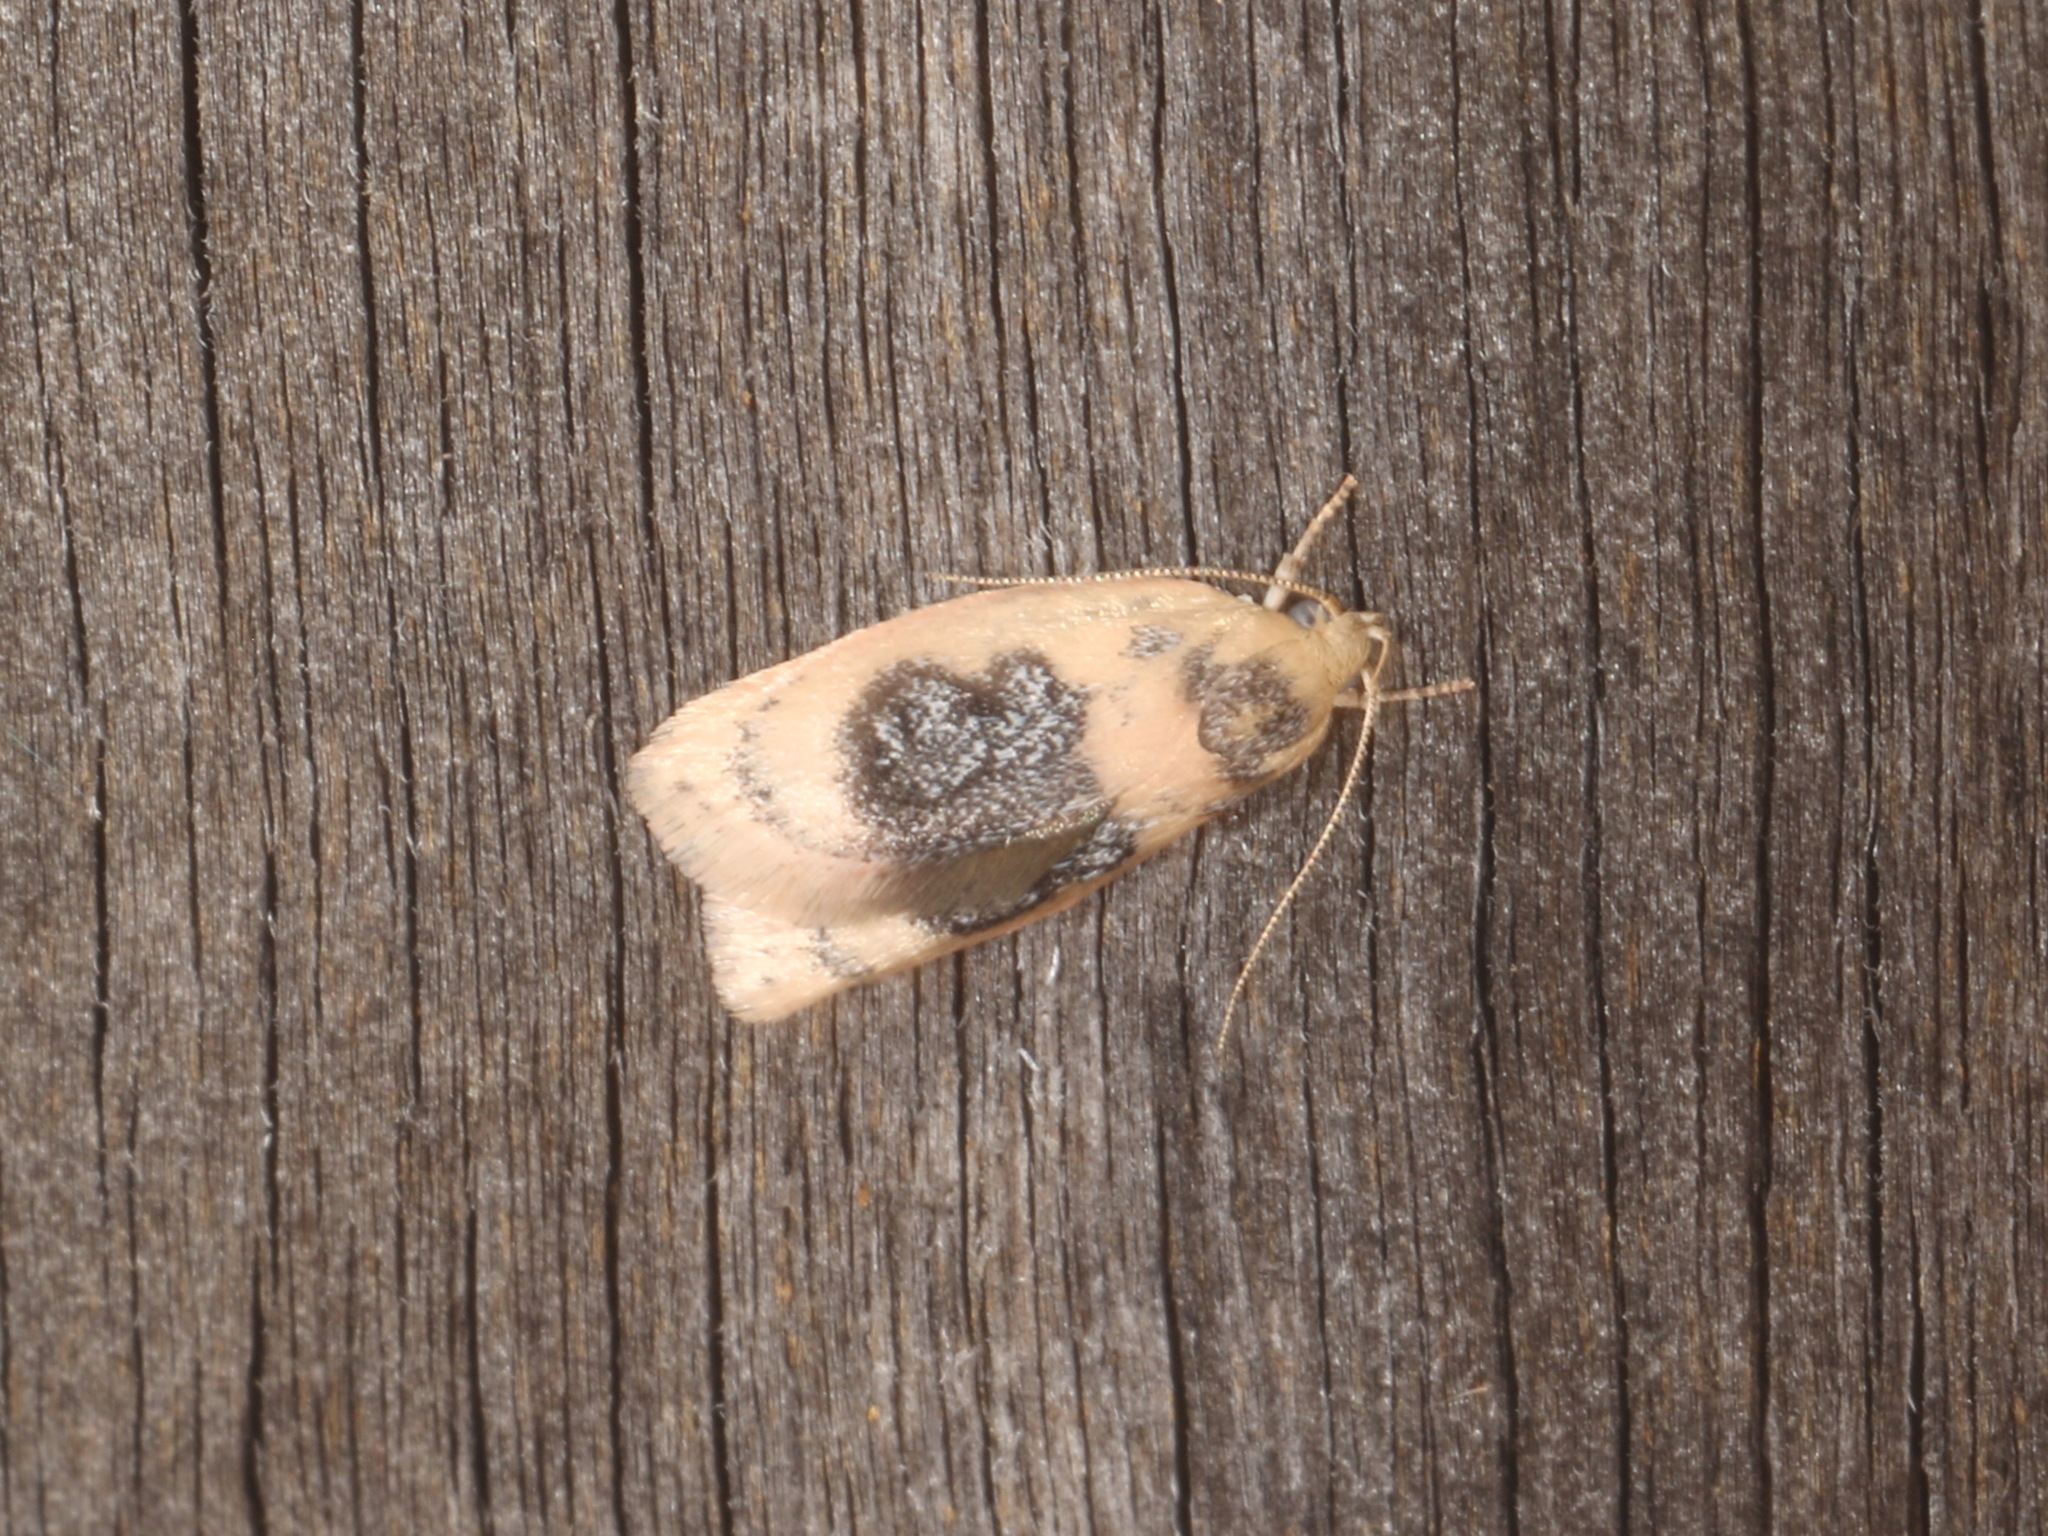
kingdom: Animalia
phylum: Arthropoda
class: Insecta
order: Lepidoptera
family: Oecophoridae
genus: Garrha
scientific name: Garrha ocellifera
